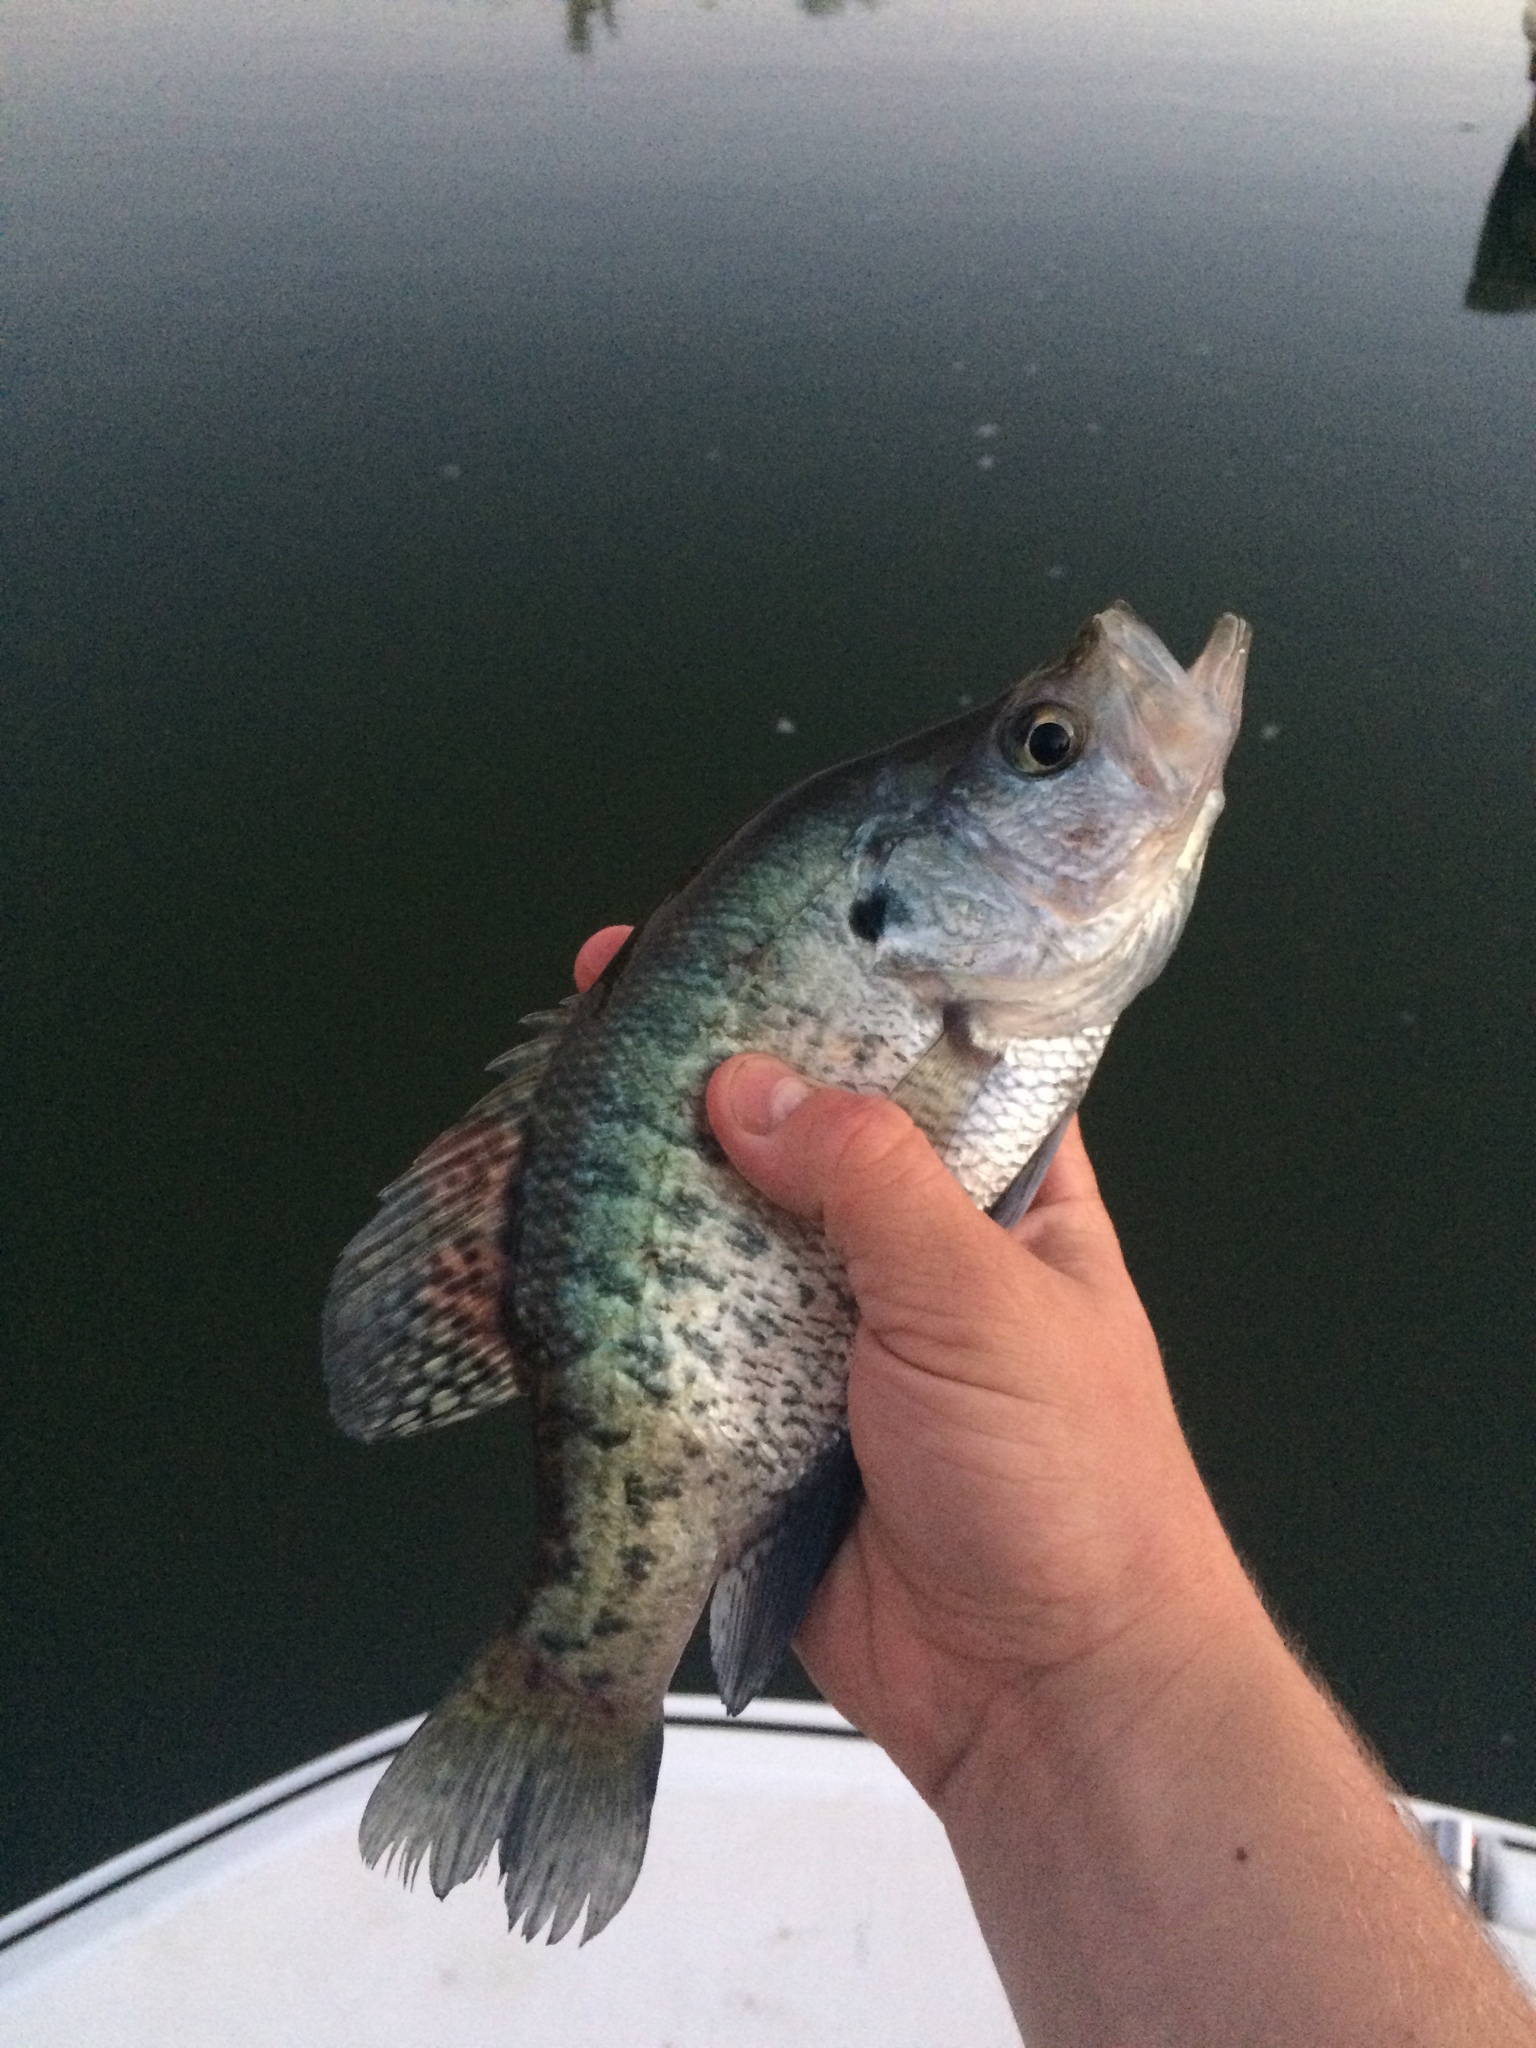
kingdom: Animalia
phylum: Chordata
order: Perciformes
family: Centrarchidae
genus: Pomoxis
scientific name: Pomoxis annularis
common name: White crappie
